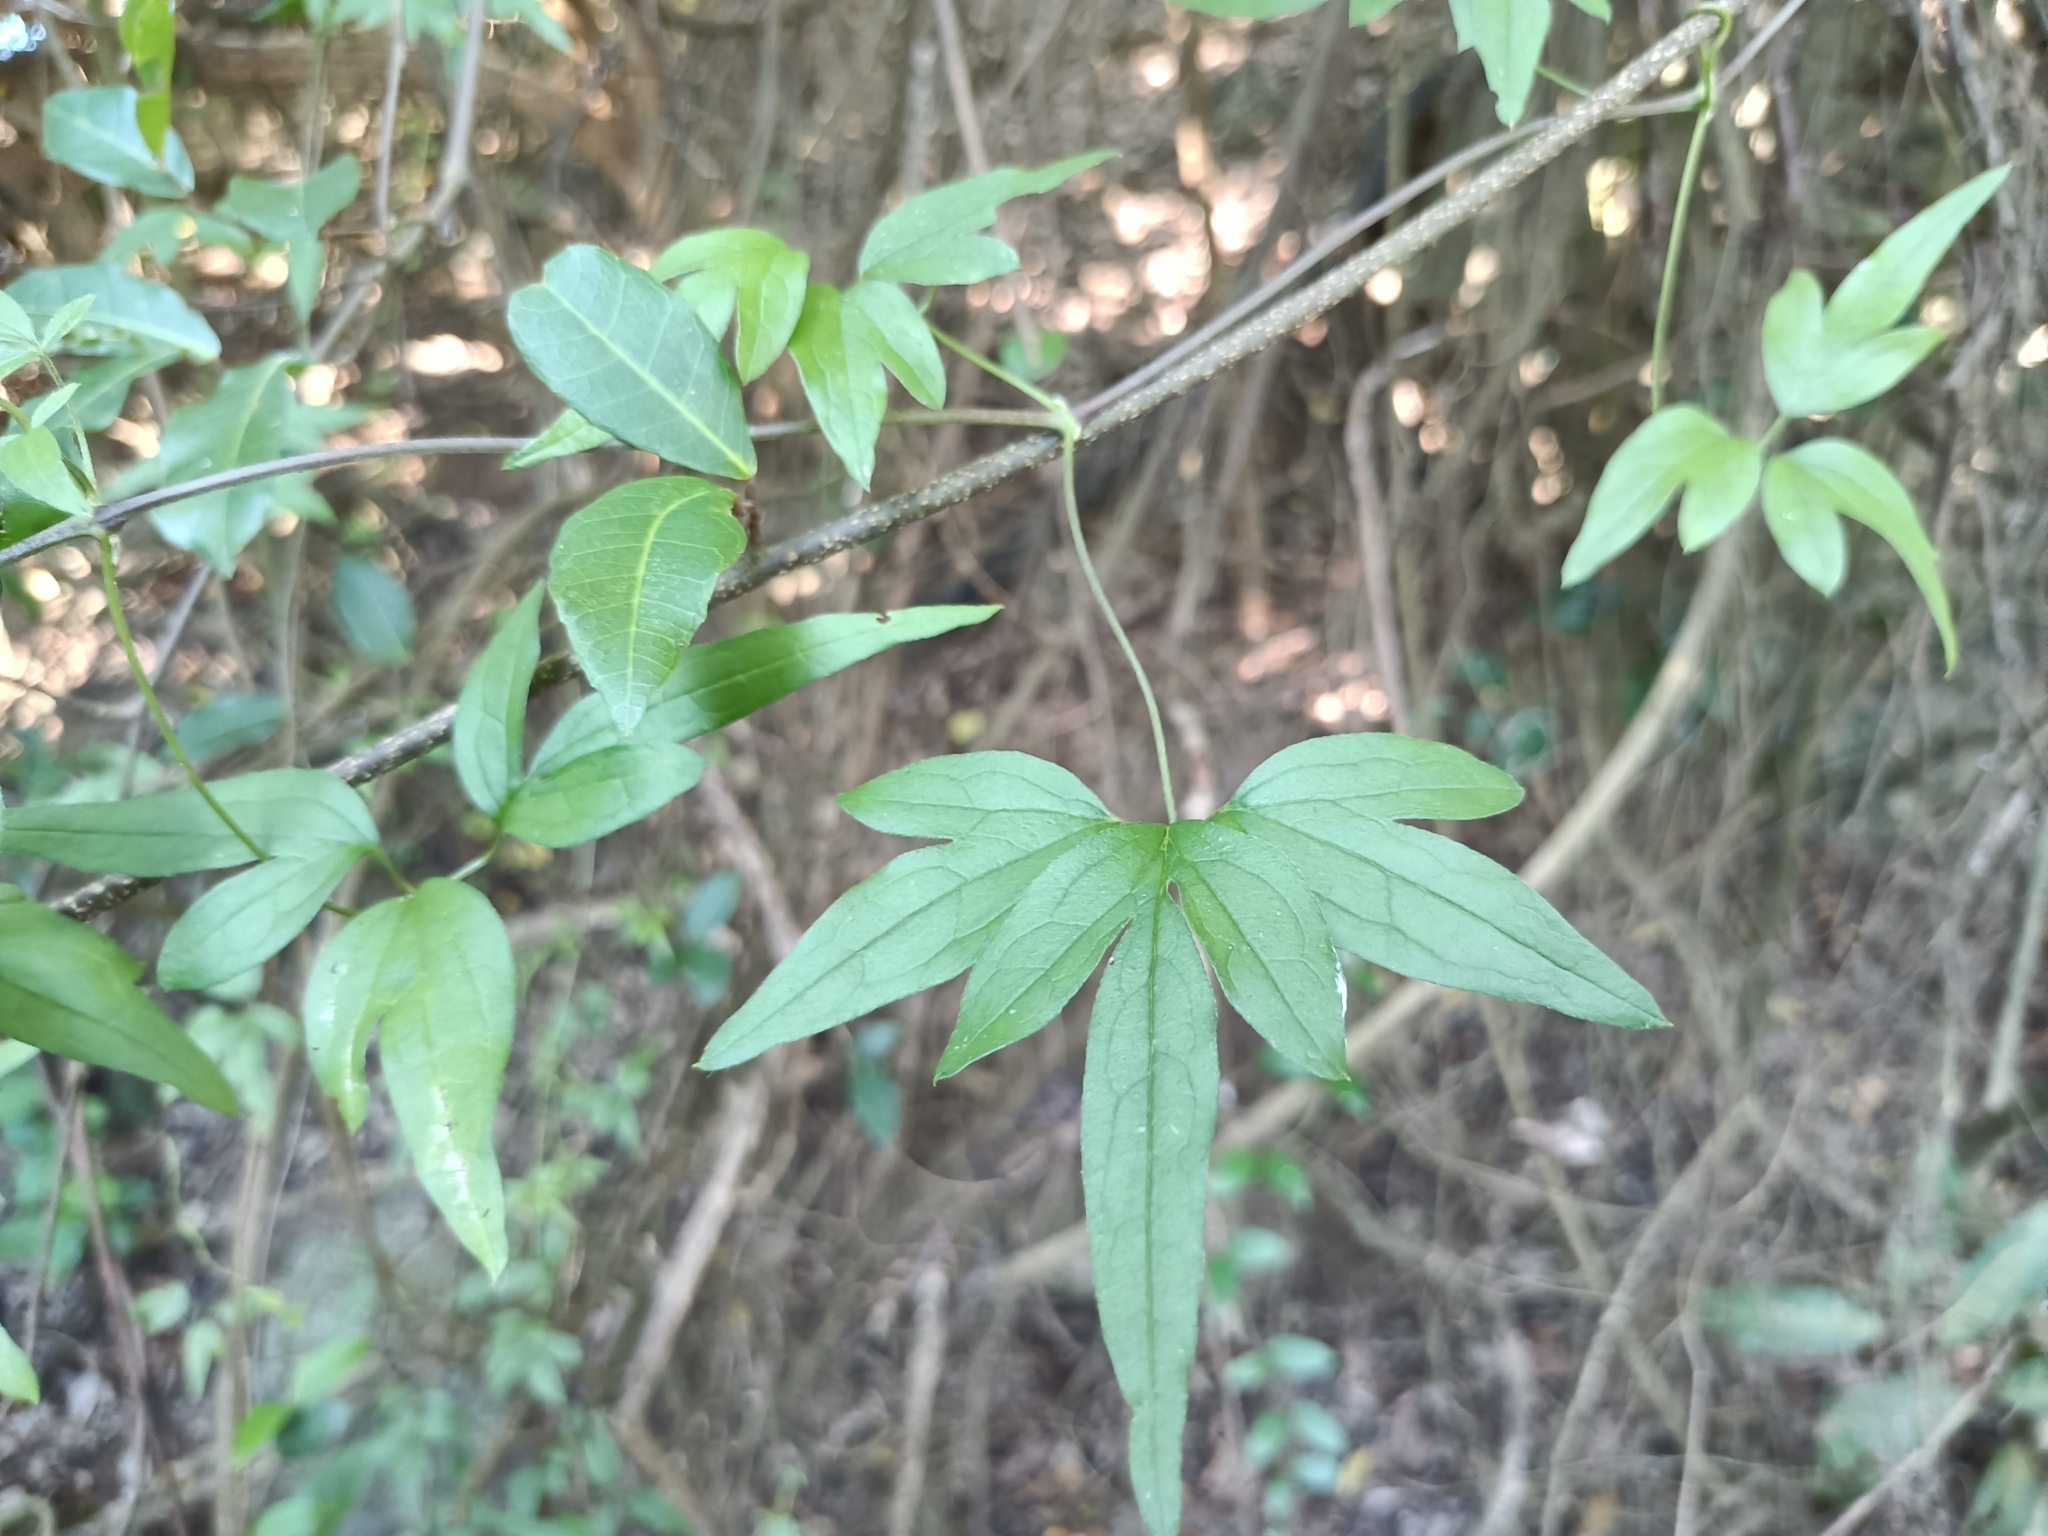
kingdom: Plantae
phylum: Tracheophyta
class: Magnoliopsida
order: Ranunculales
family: Ranunculaceae
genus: Clematis
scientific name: Clematis formosana
